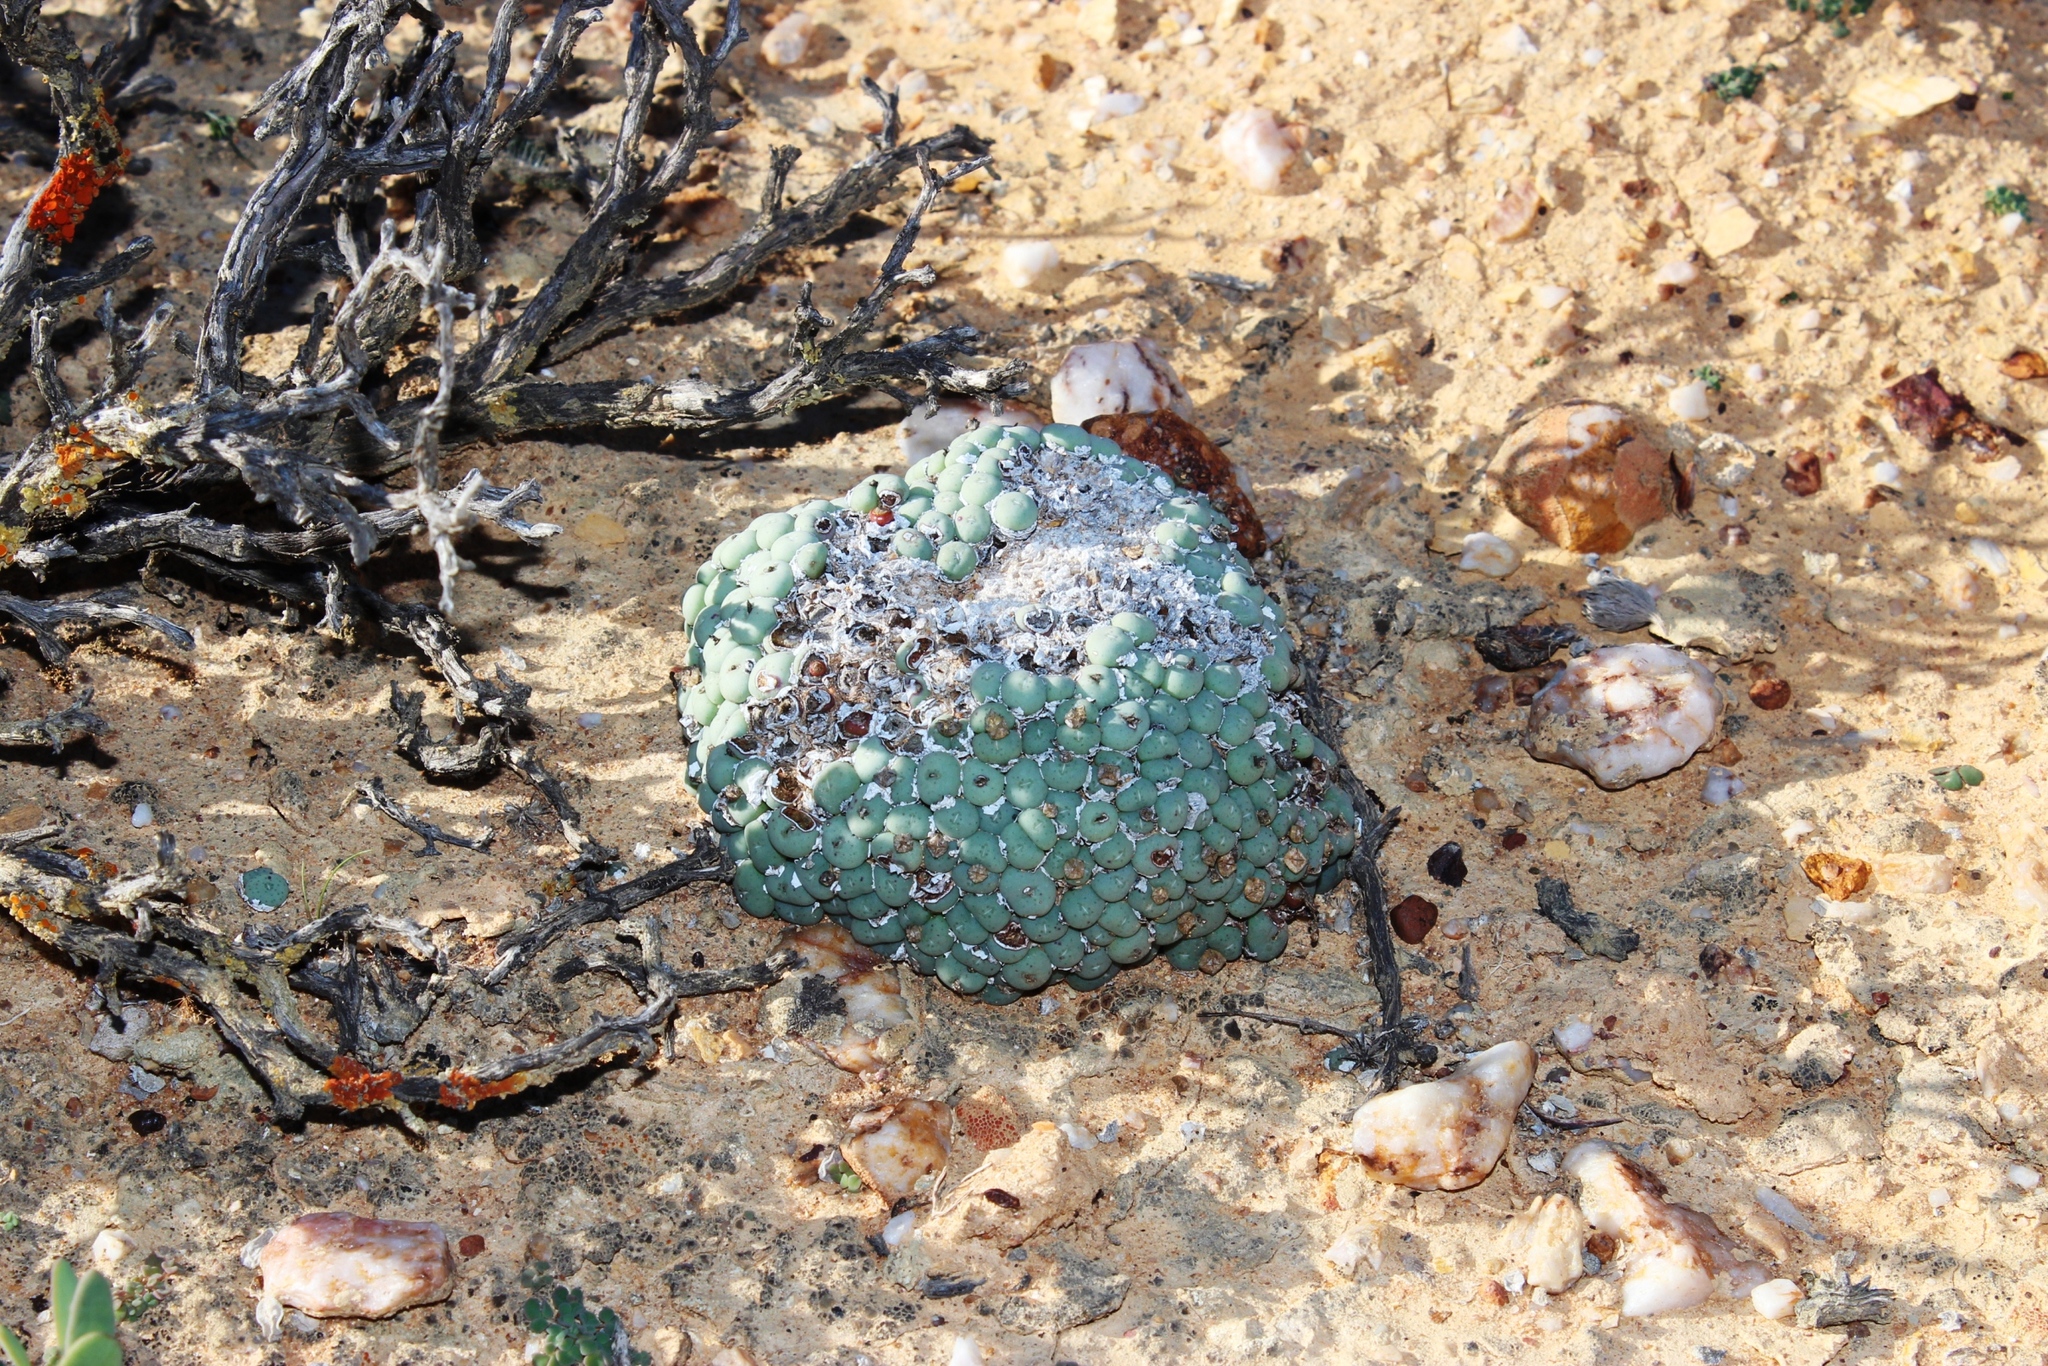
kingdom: Plantae
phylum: Tracheophyta
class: Magnoliopsida
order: Caryophyllales
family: Aizoaceae
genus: Conophytum
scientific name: Conophytum minutum
